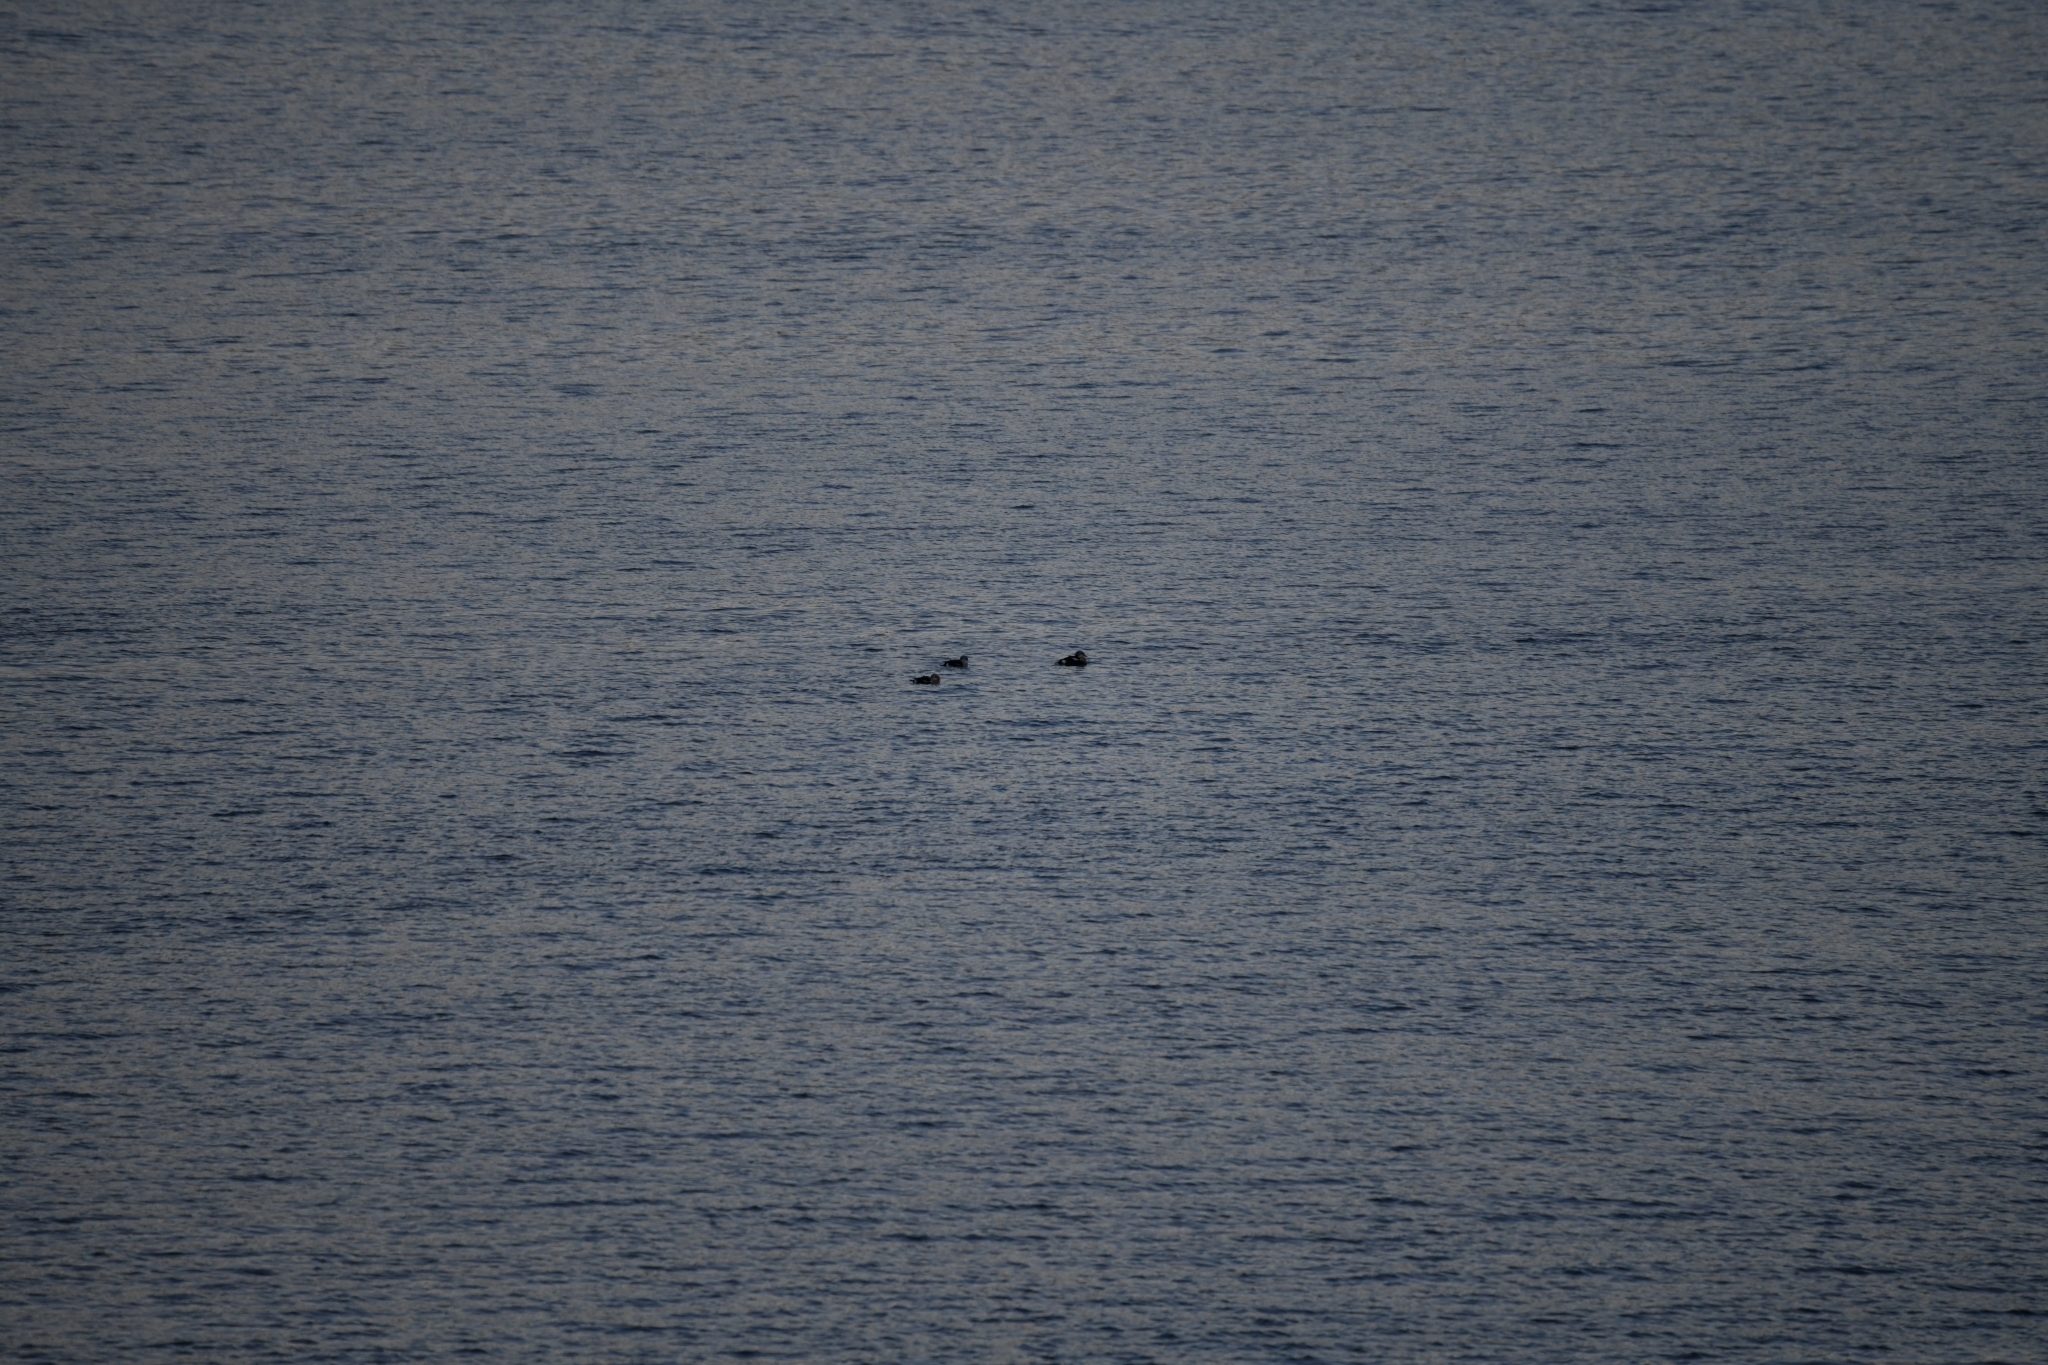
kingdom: Animalia
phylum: Chordata
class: Aves
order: Anseriformes
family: Anatidae
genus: Somateria
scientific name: Somateria spectabilis
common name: King eider
